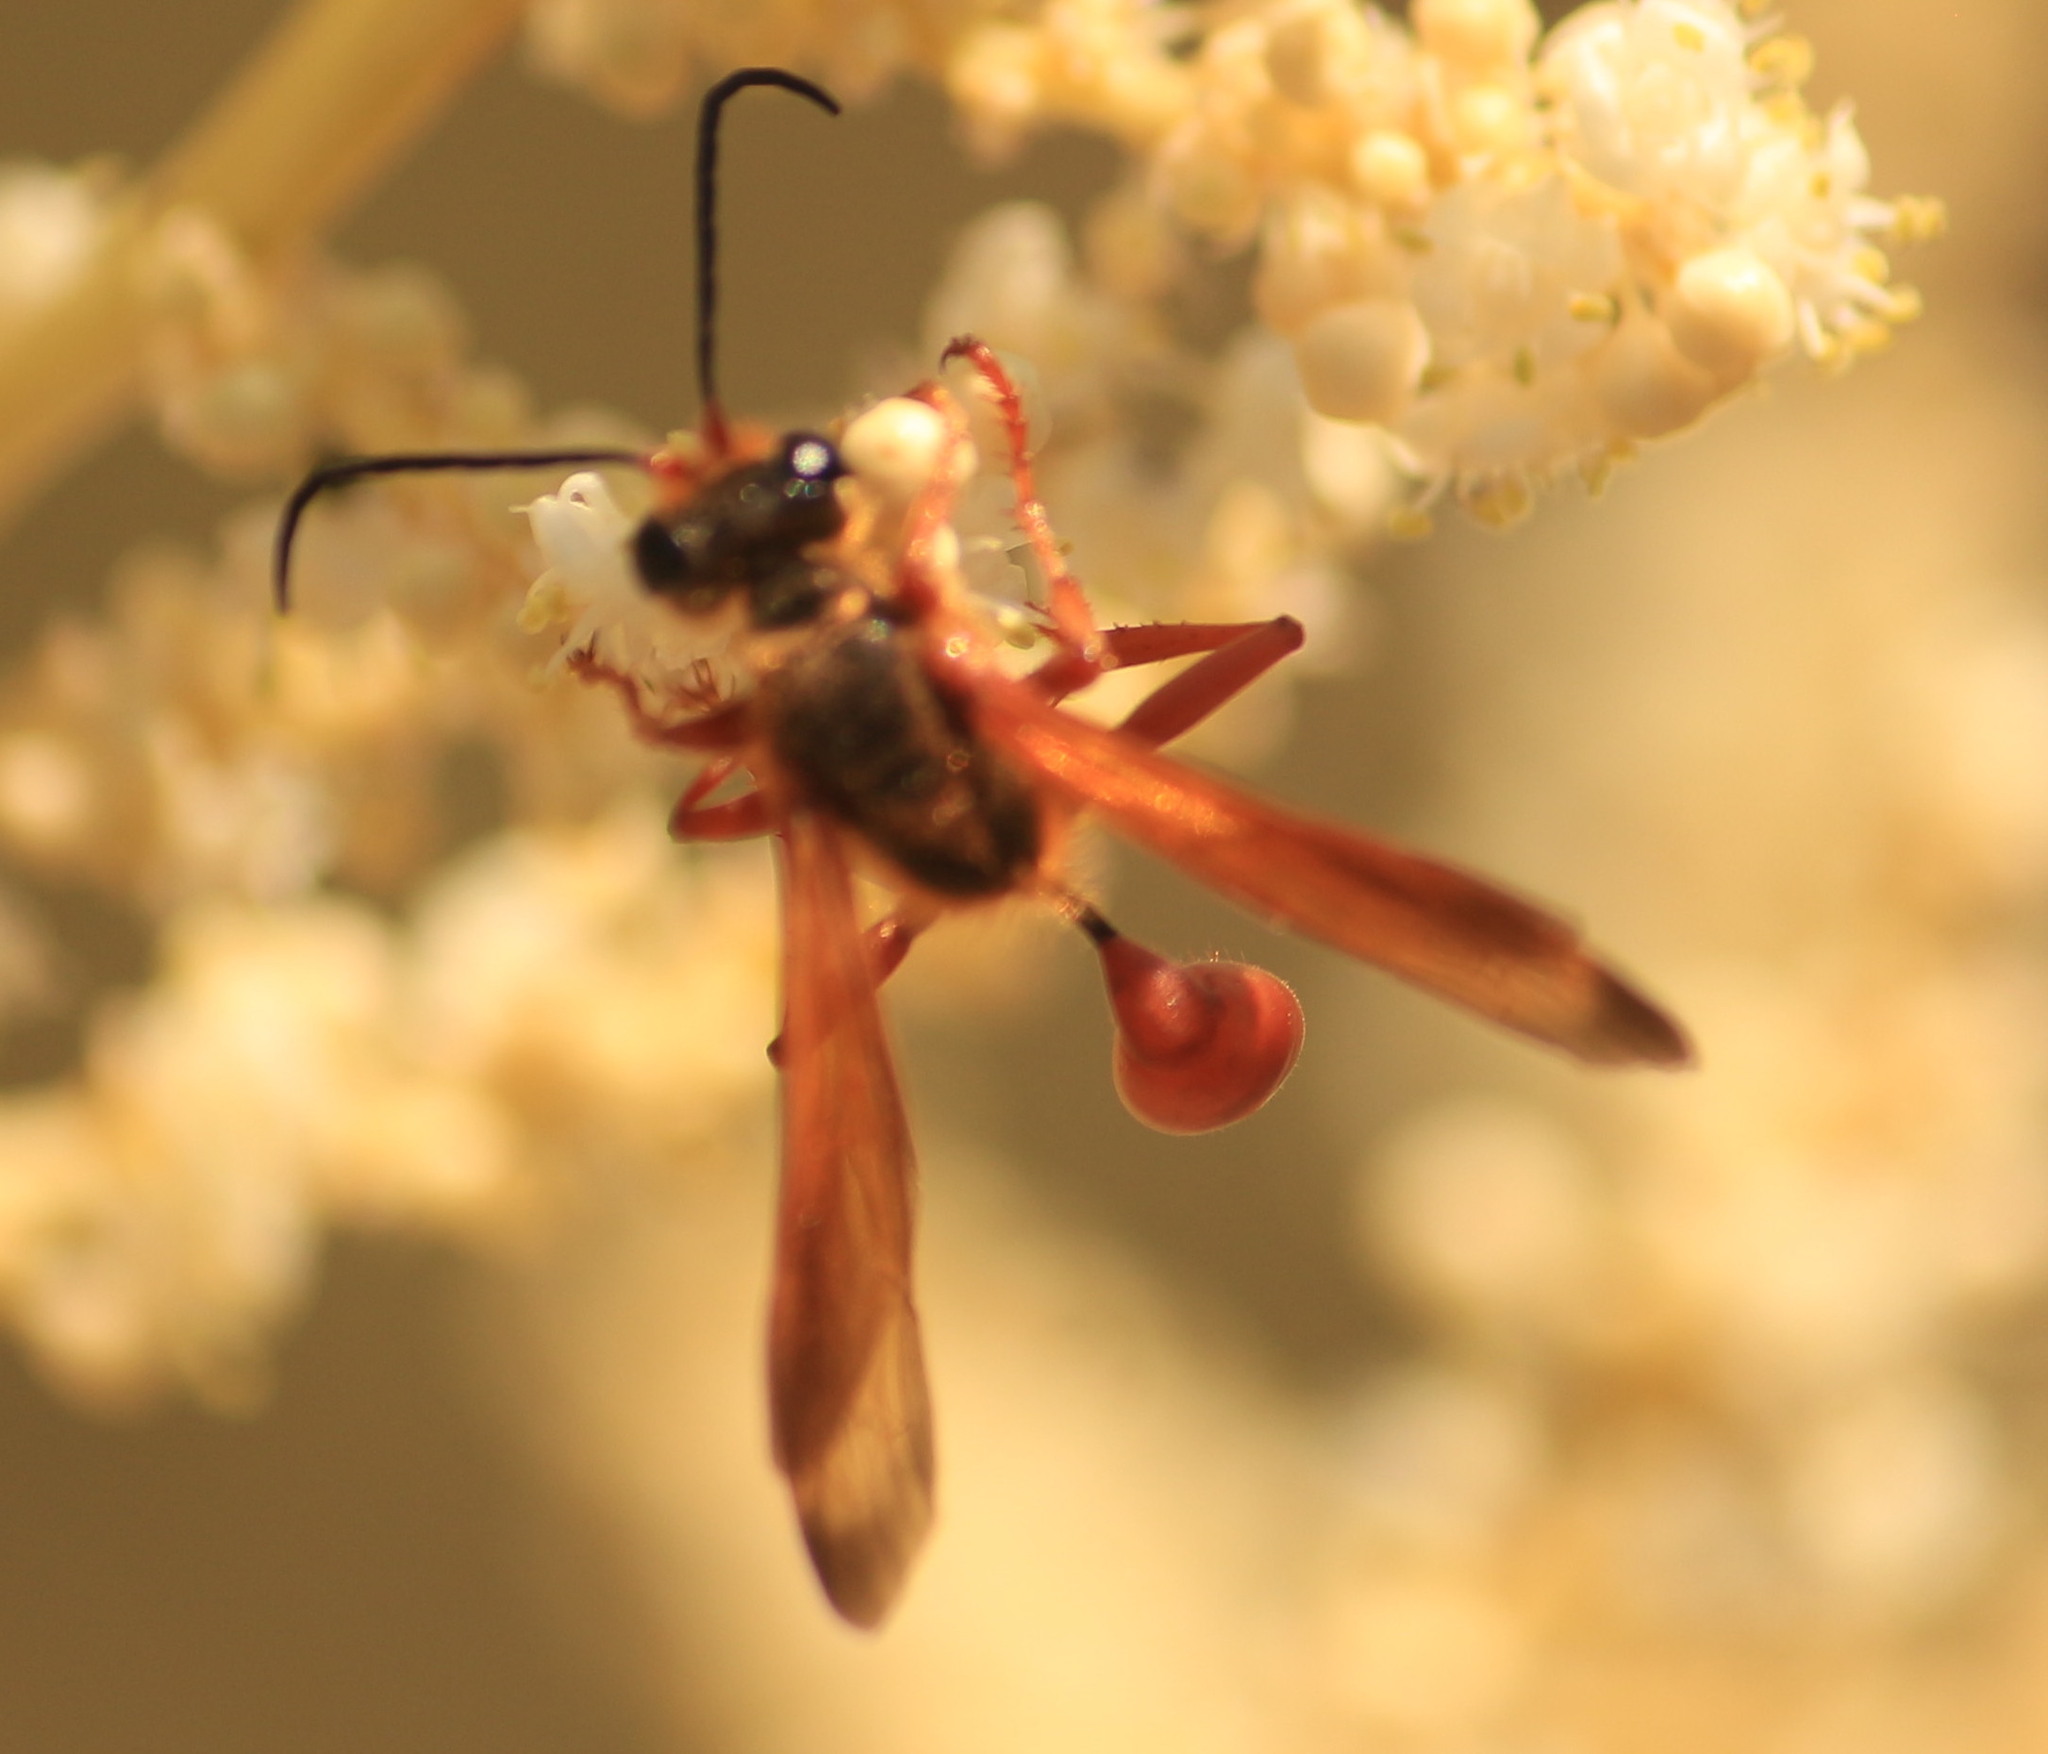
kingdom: Animalia
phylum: Arthropoda
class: Insecta
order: Hymenoptera
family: Sphecidae
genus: Isodontia
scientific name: Isodontia elegans
